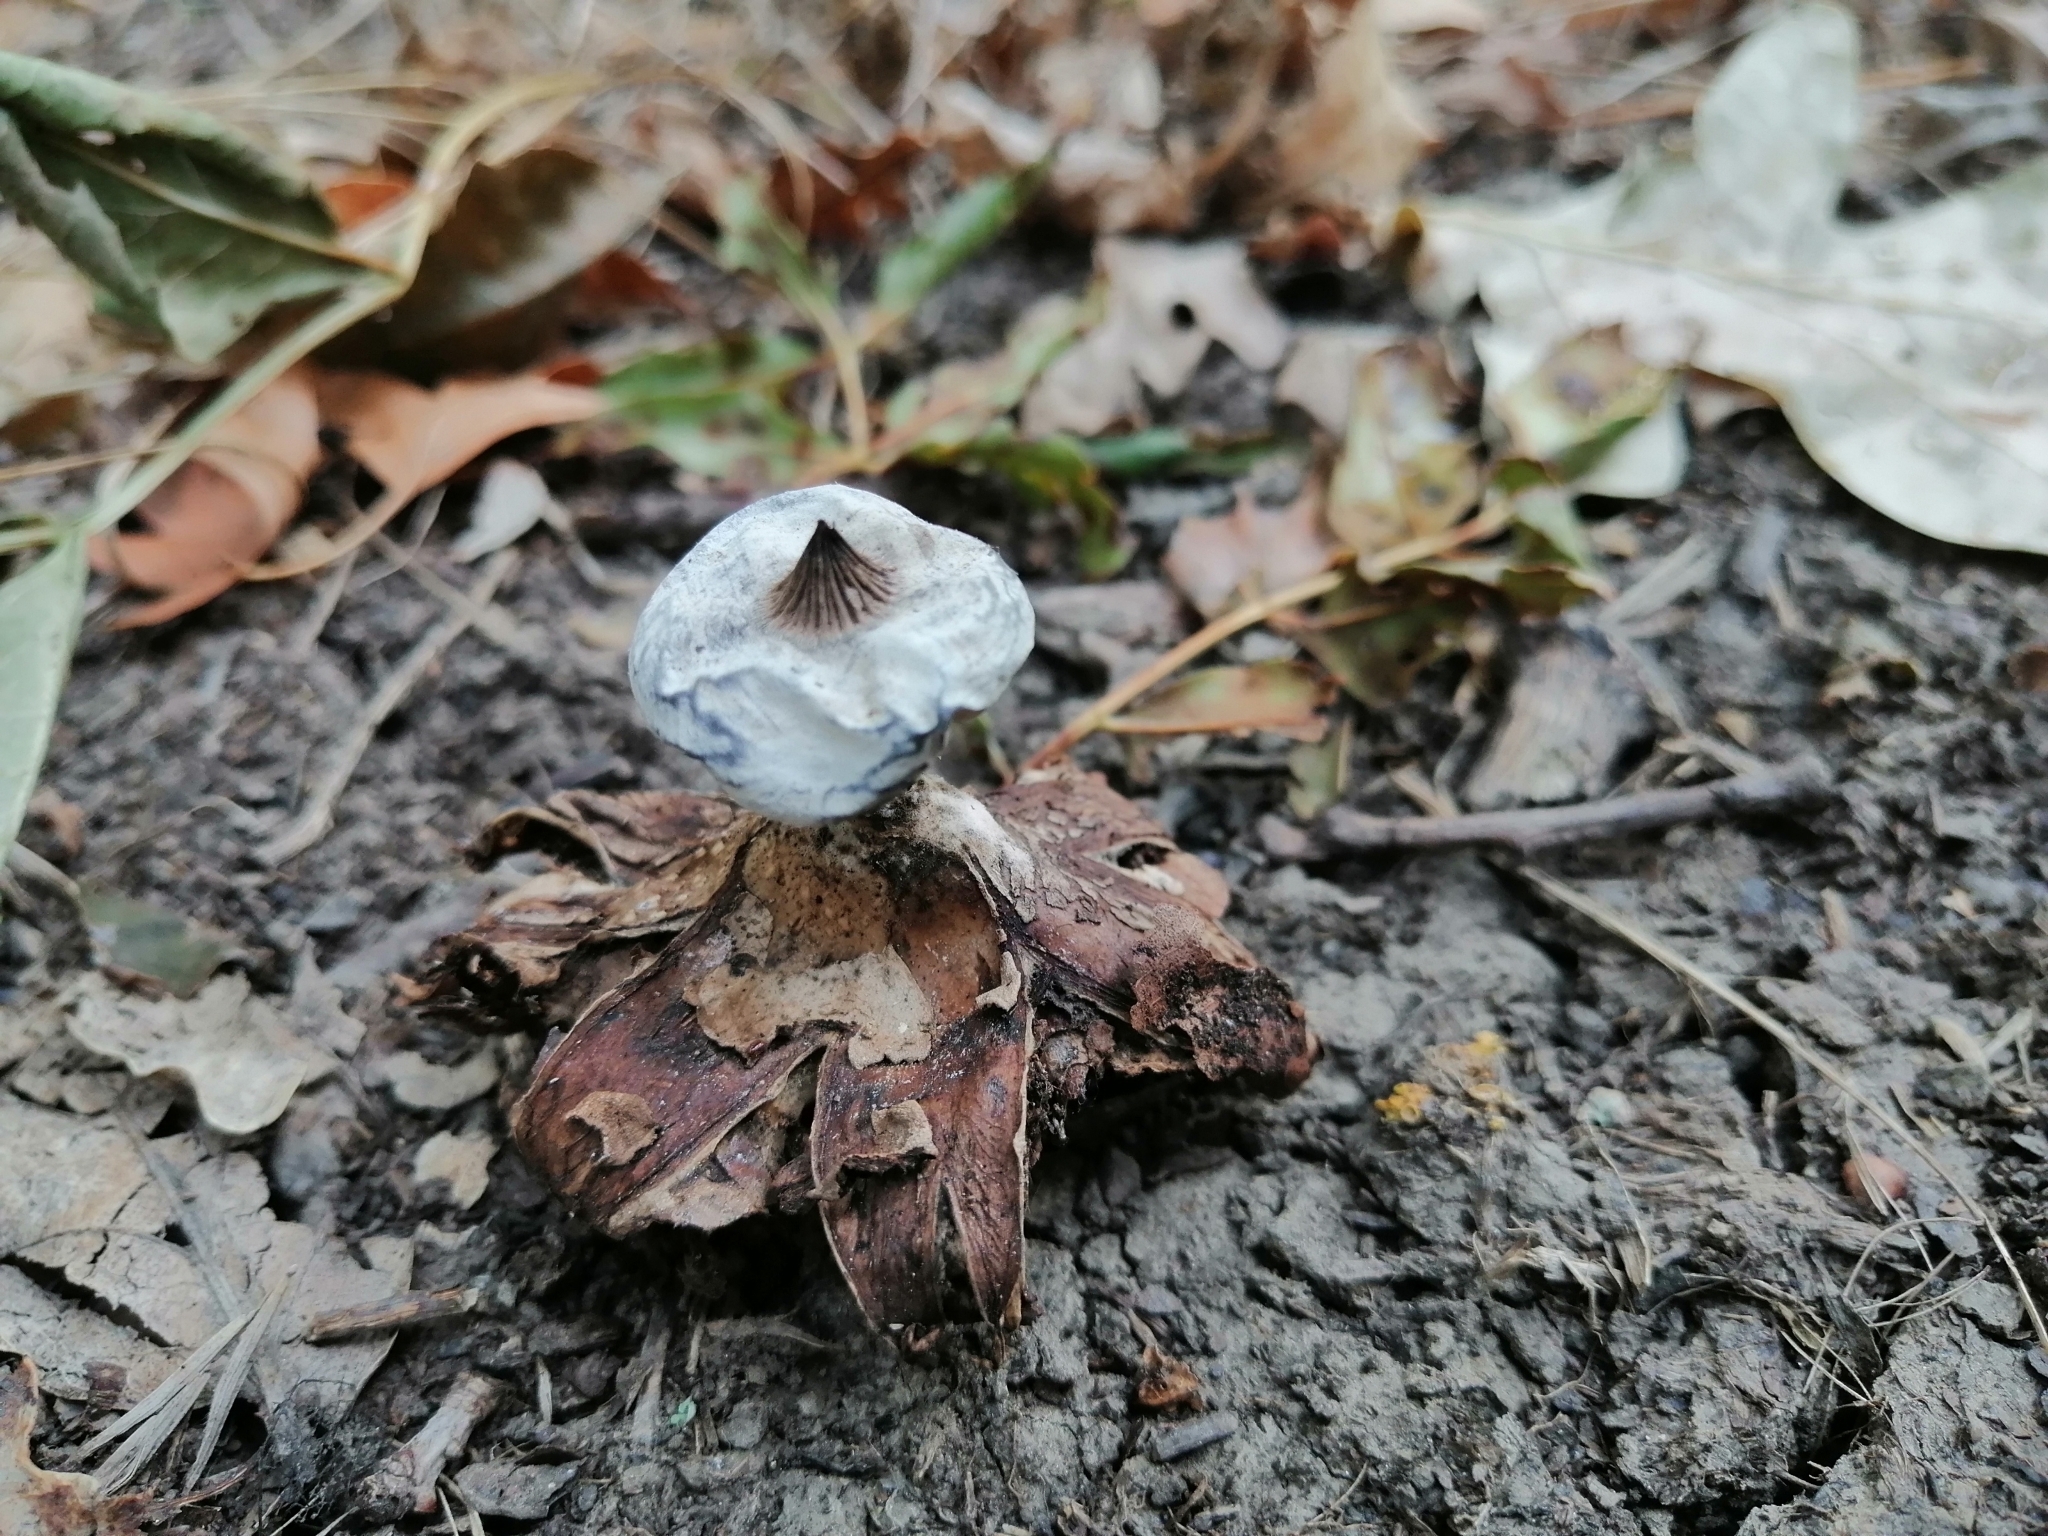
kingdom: Fungi
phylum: Basidiomycota
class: Agaricomycetes
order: Geastrales
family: Geastraceae
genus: Geastrum
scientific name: Geastrum striatum
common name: Striate earthstar
